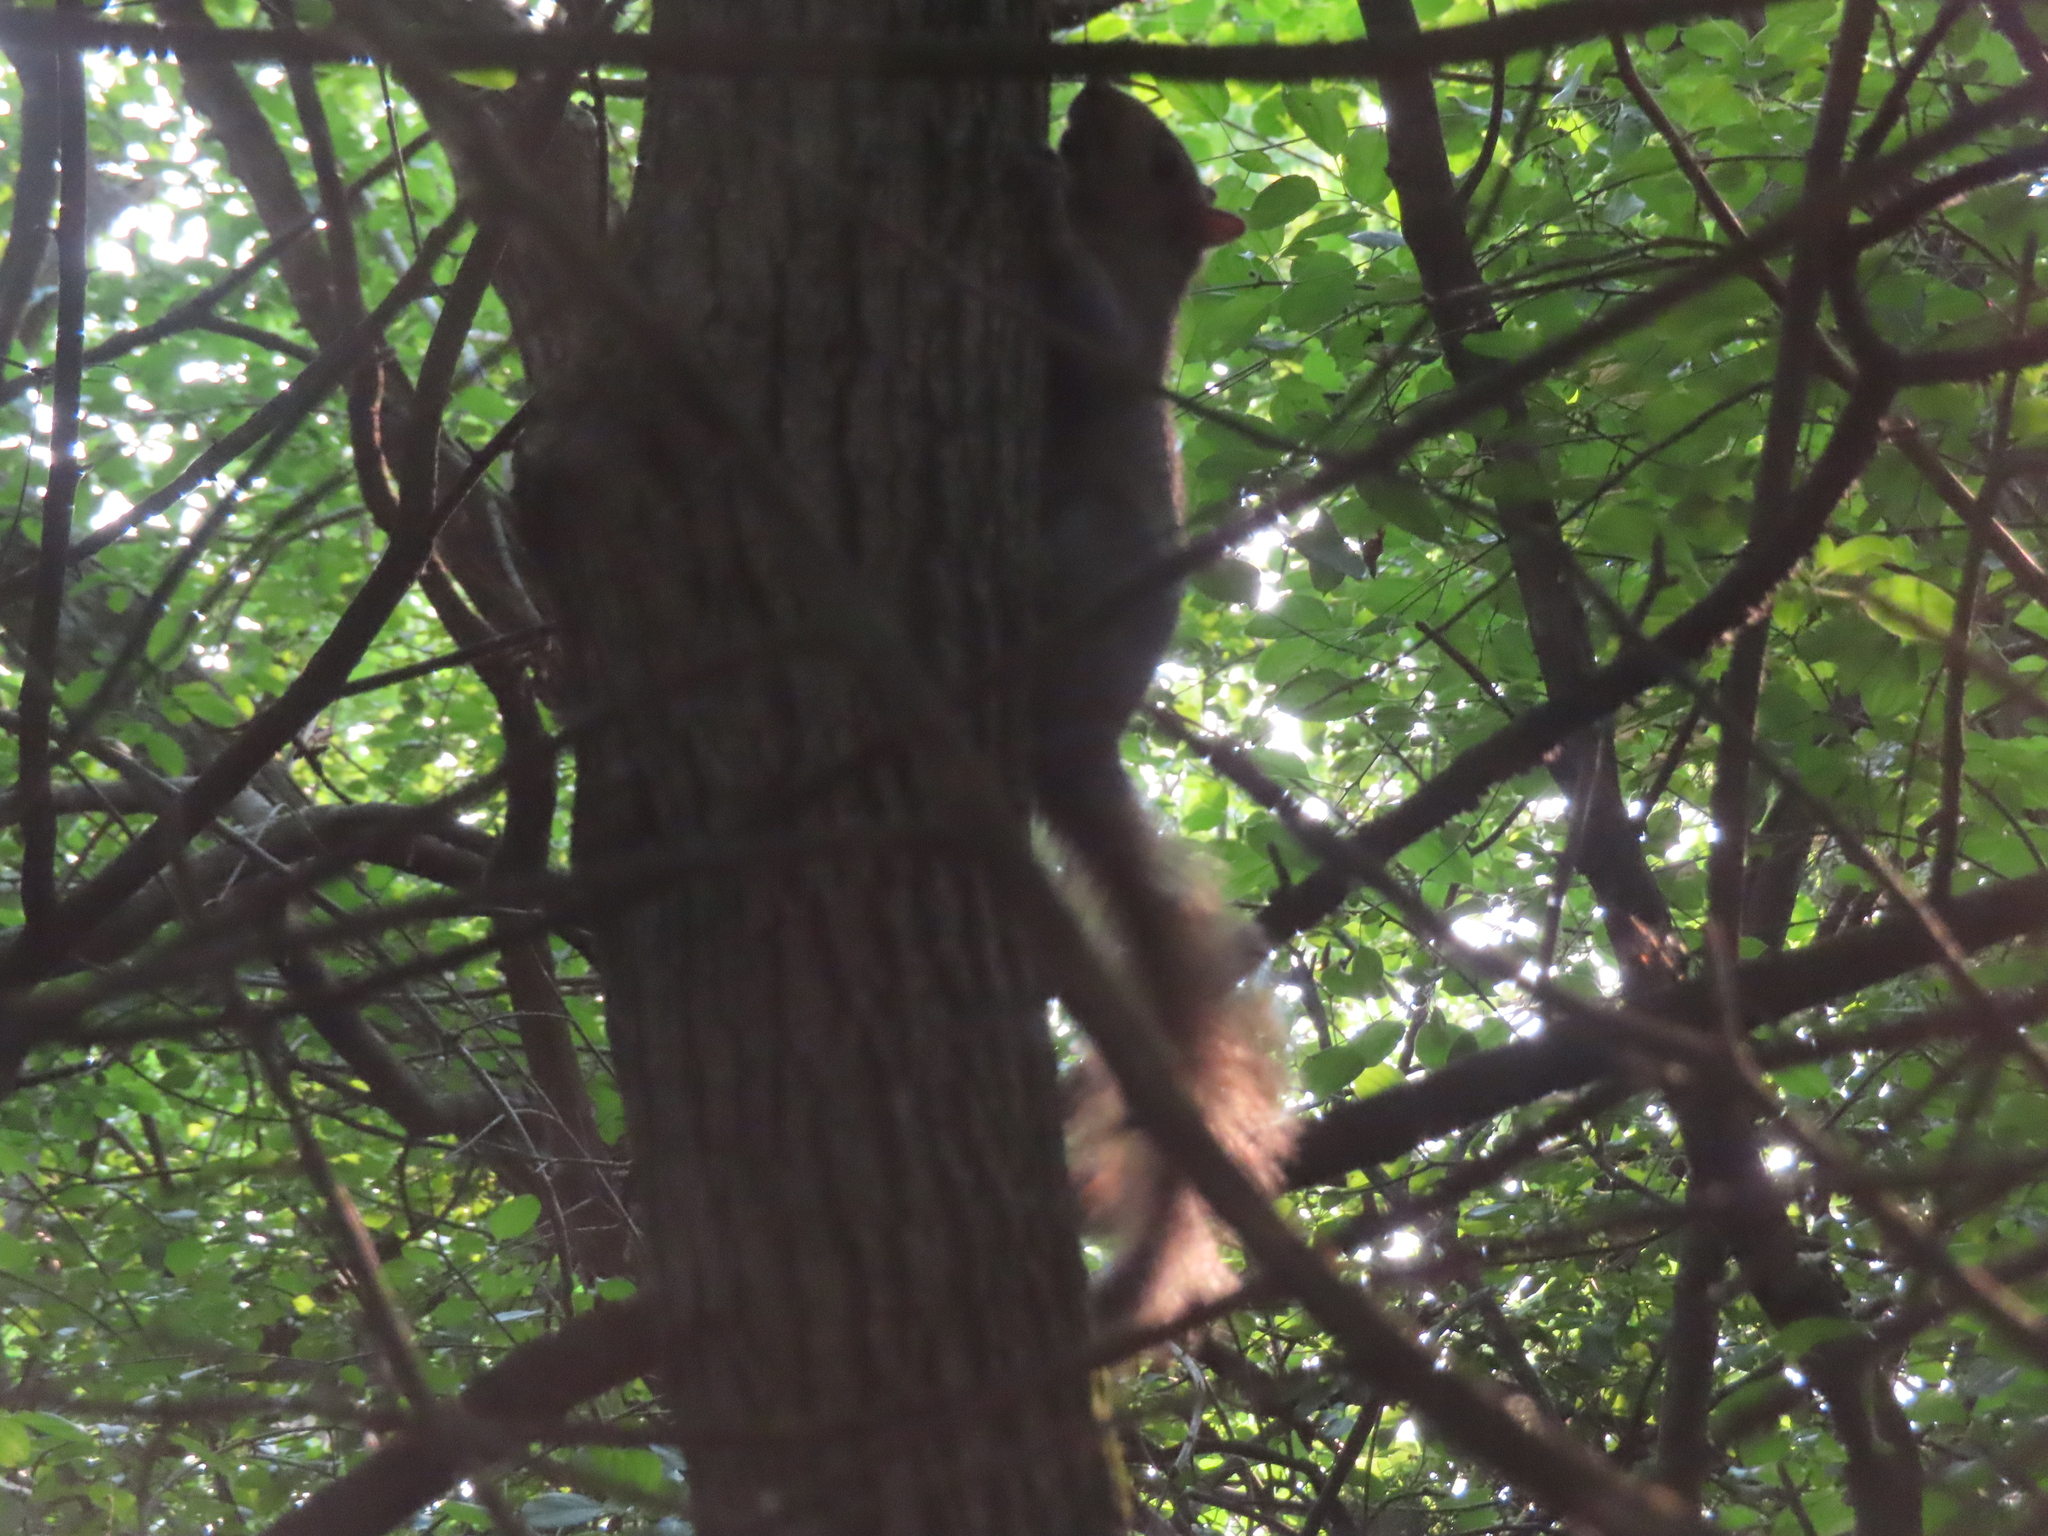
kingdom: Animalia
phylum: Chordata
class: Mammalia
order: Rodentia
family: Sciuridae
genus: Sciurus
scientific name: Sciurus carolinensis
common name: Eastern gray squirrel
